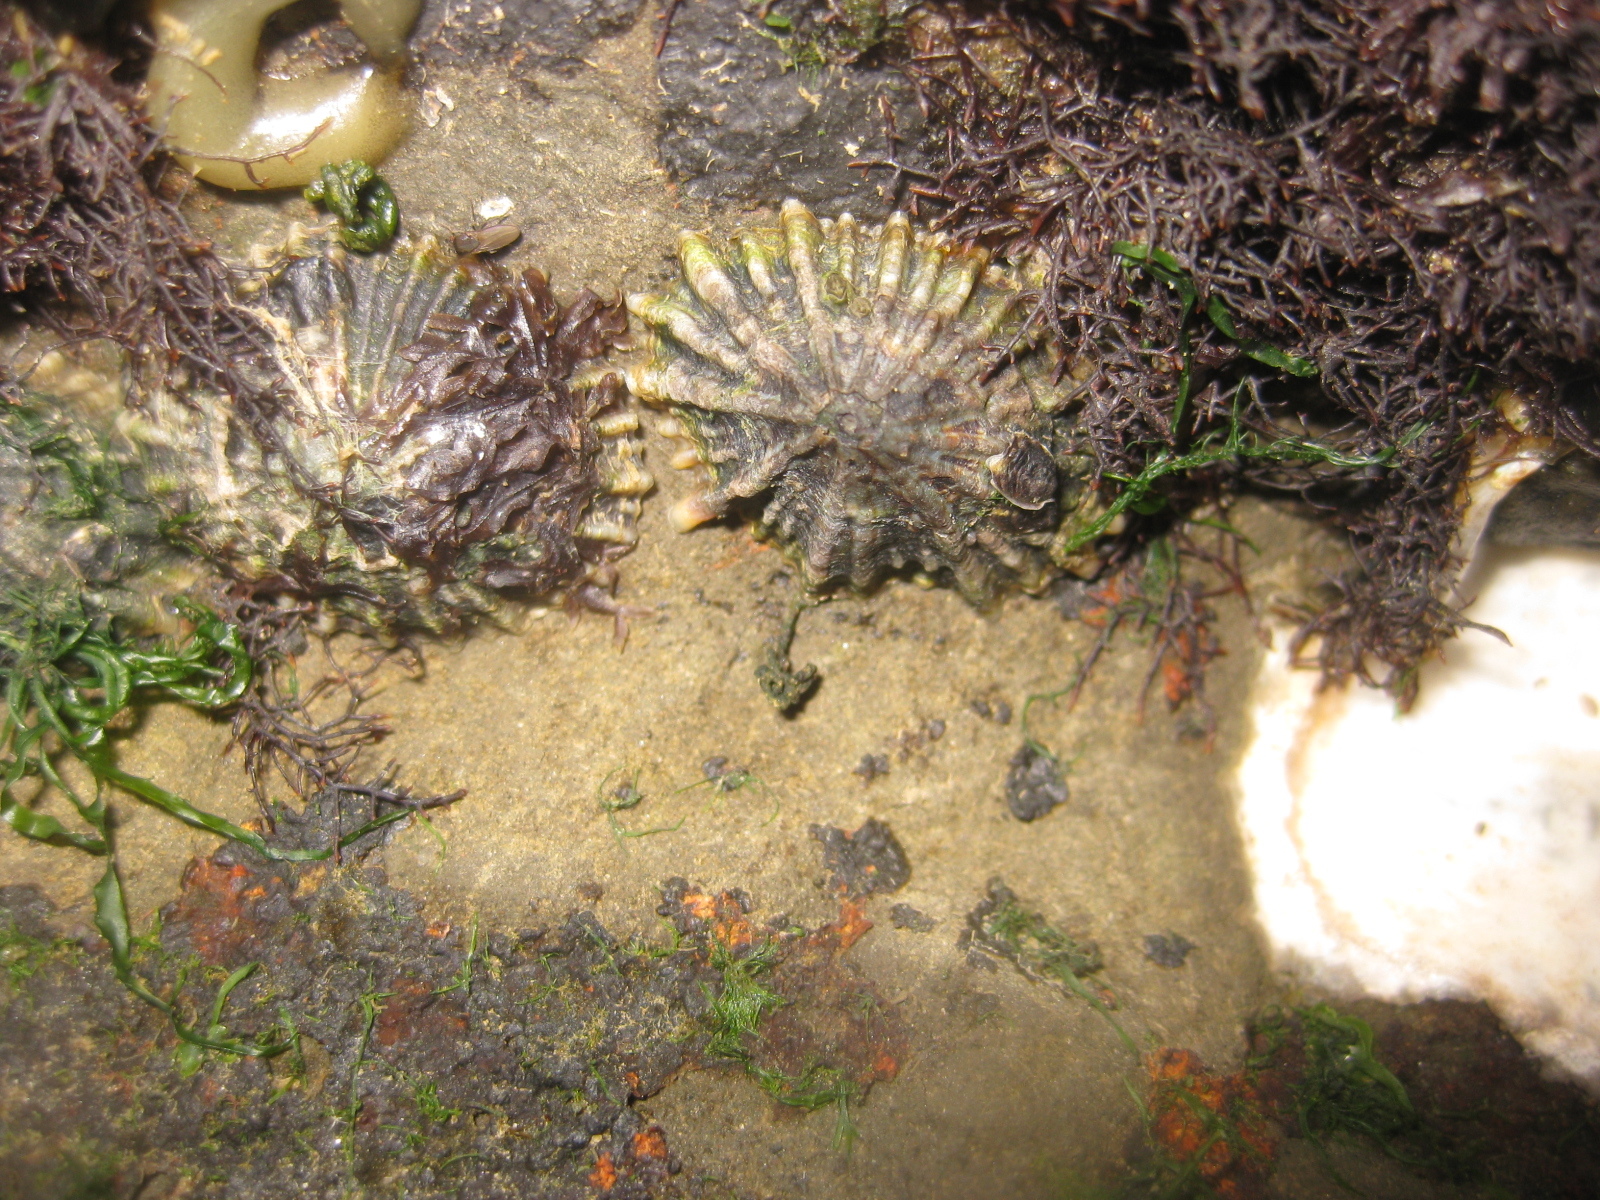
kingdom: Animalia
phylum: Mollusca
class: Gastropoda
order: Siphonariida
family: Siphonariidae
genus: Siphonaria
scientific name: Siphonaria australis
